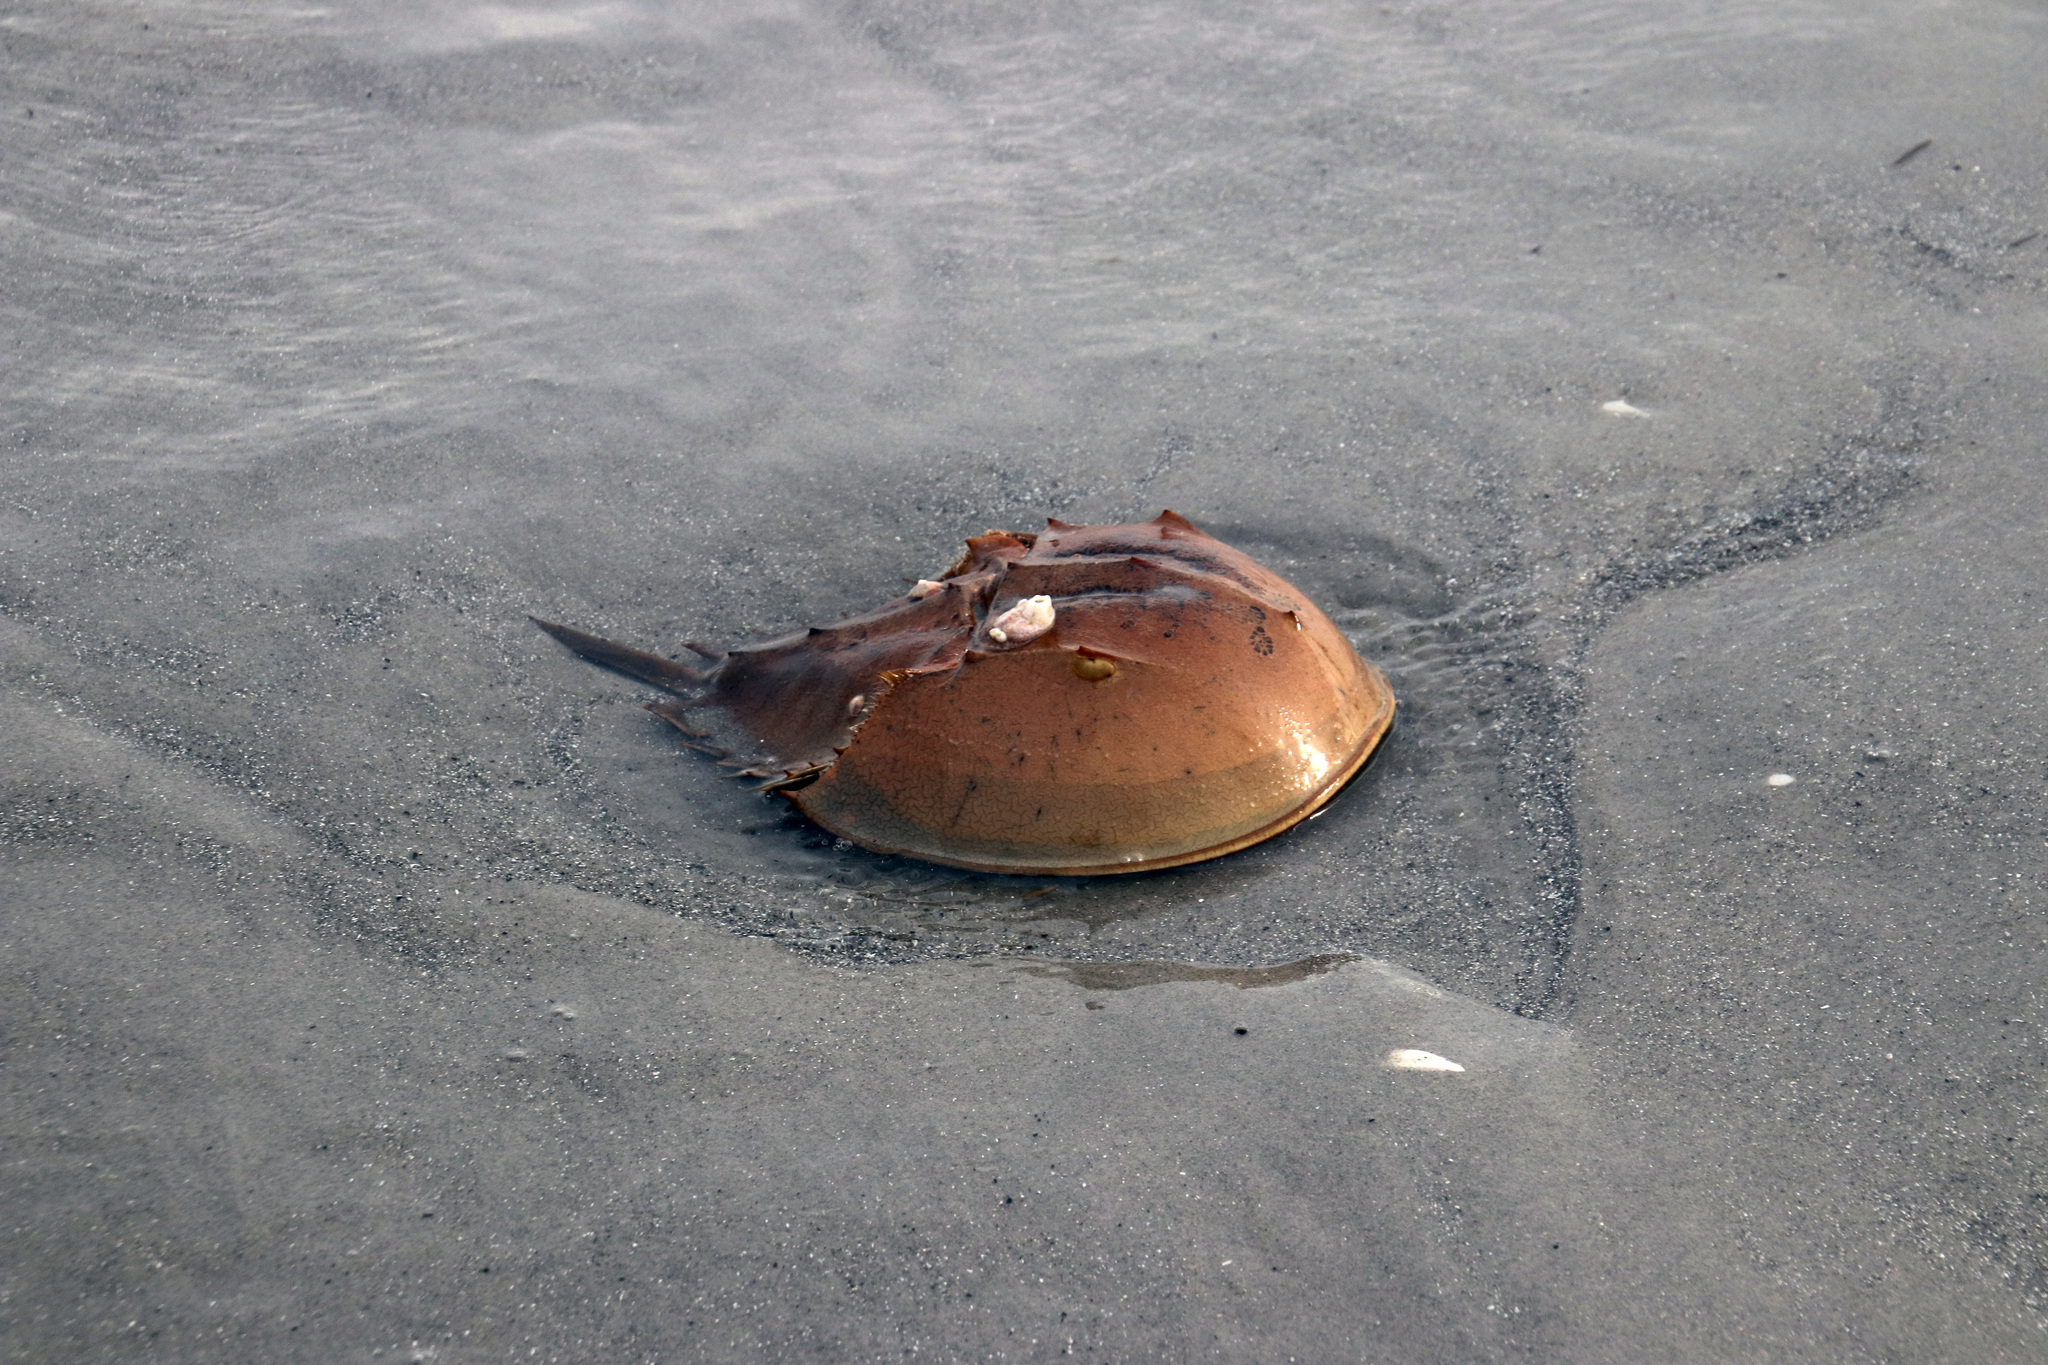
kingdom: Animalia
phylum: Arthropoda
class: Merostomata
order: Xiphosurida
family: Limulidae
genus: Limulus
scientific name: Limulus polyphemus
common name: Horseshoe crab
